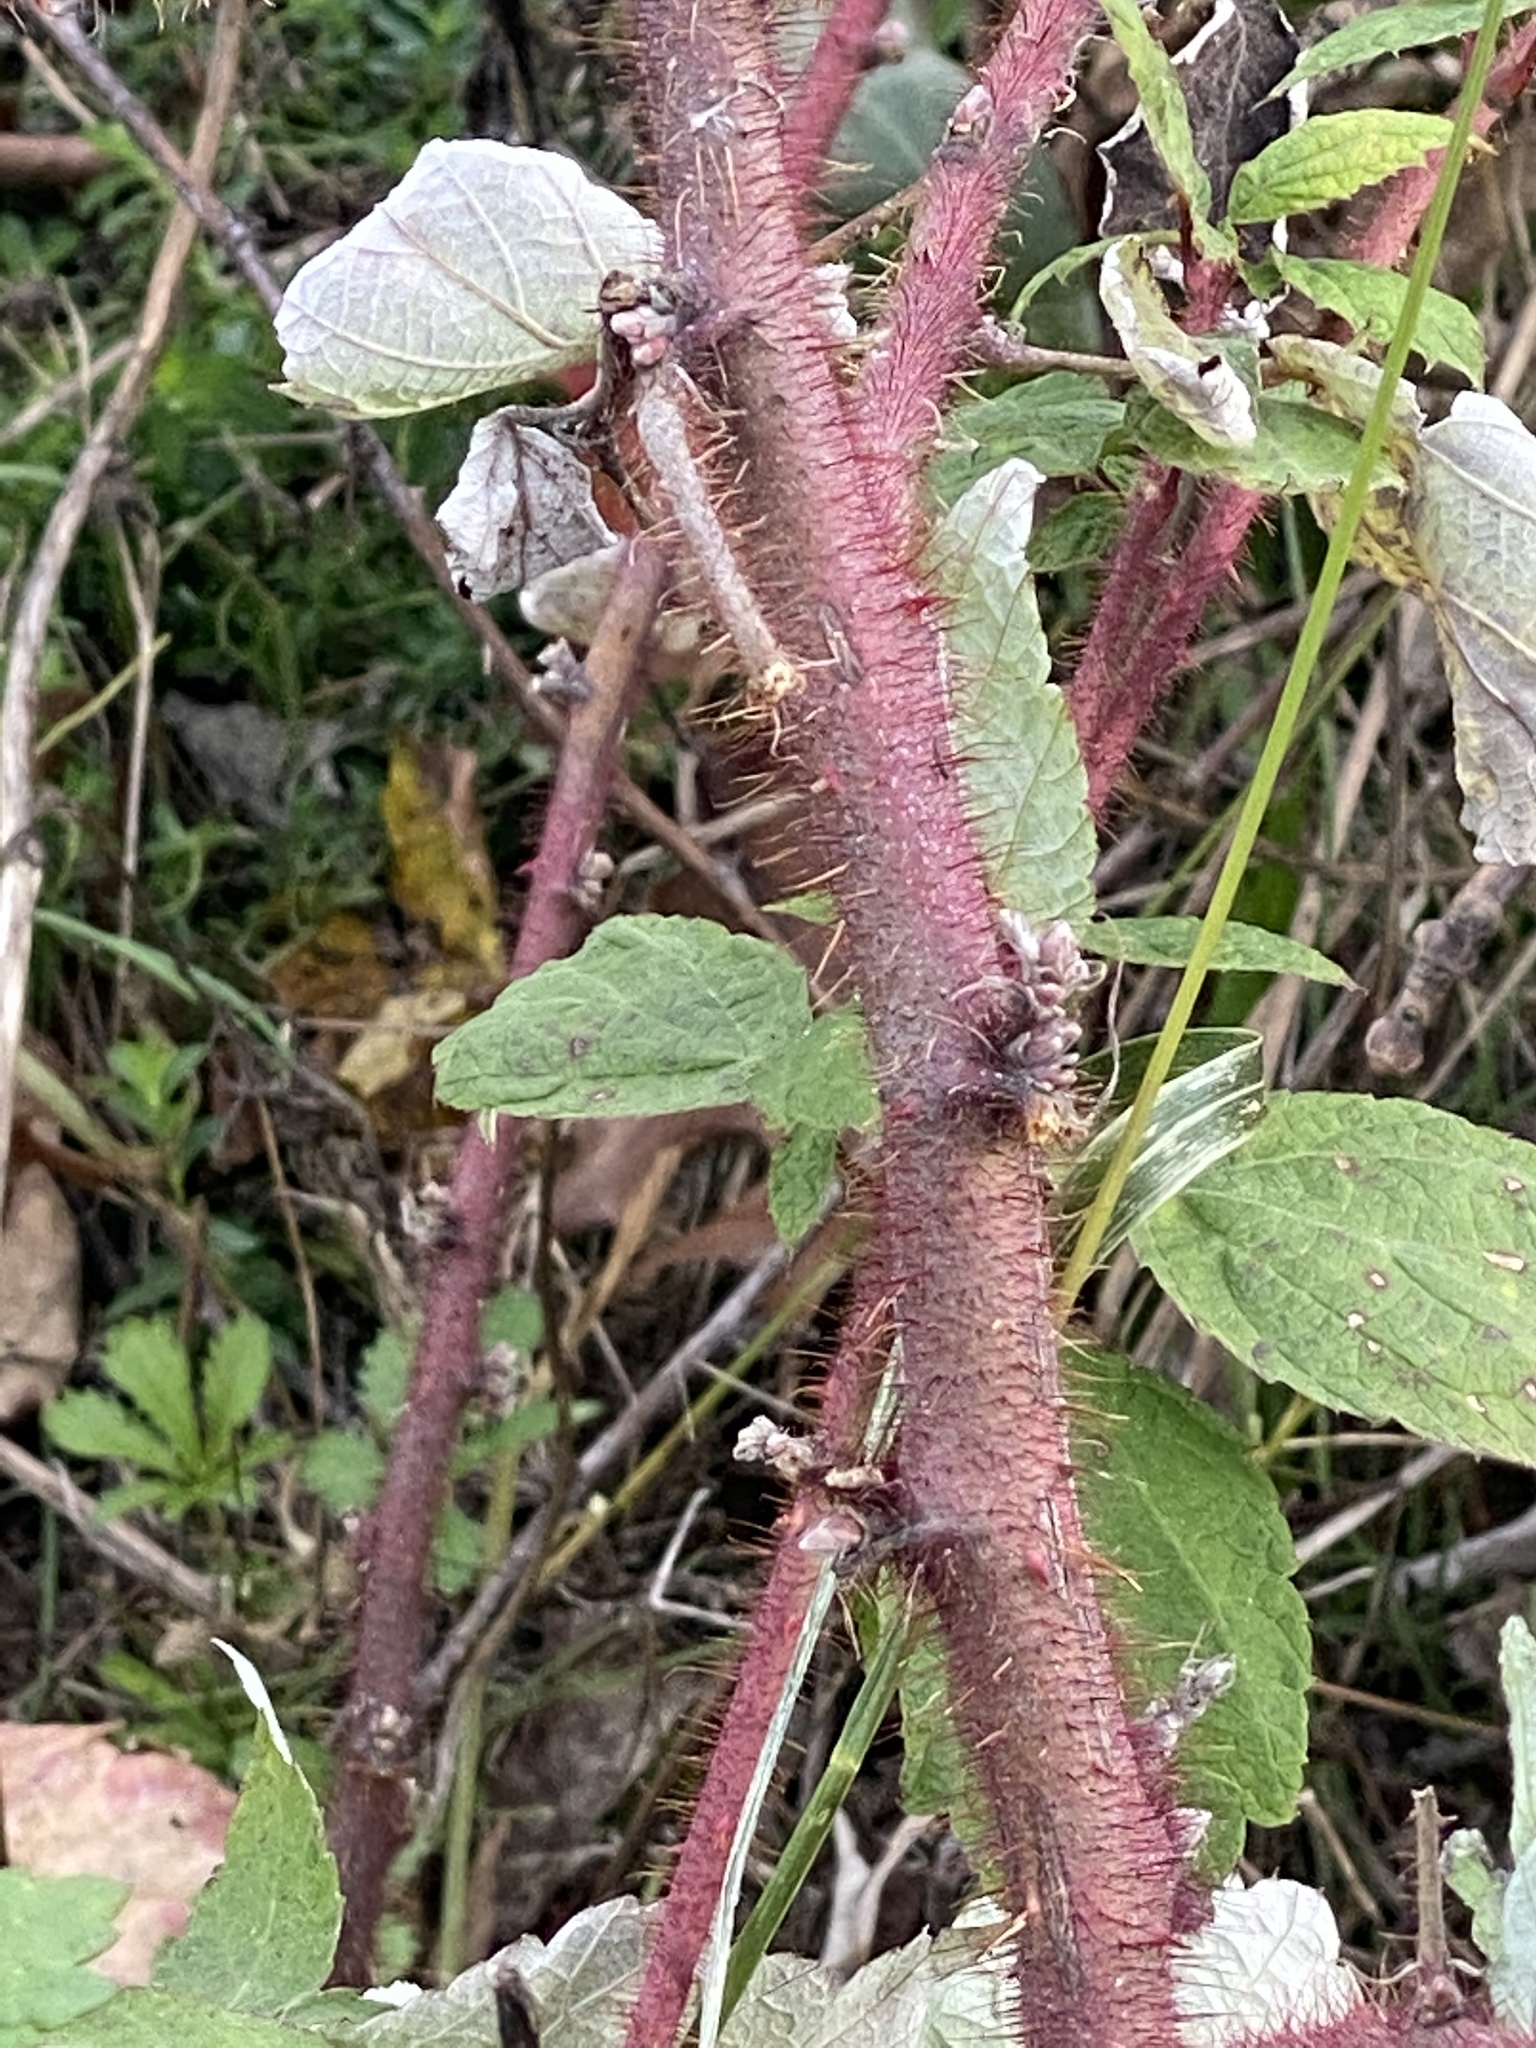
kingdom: Plantae
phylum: Tracheophyta
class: Magnoliopsida
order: Rosales
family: Rosaceae
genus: Rubus
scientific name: Rubus phoenicolasius
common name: Japanese wineberry
